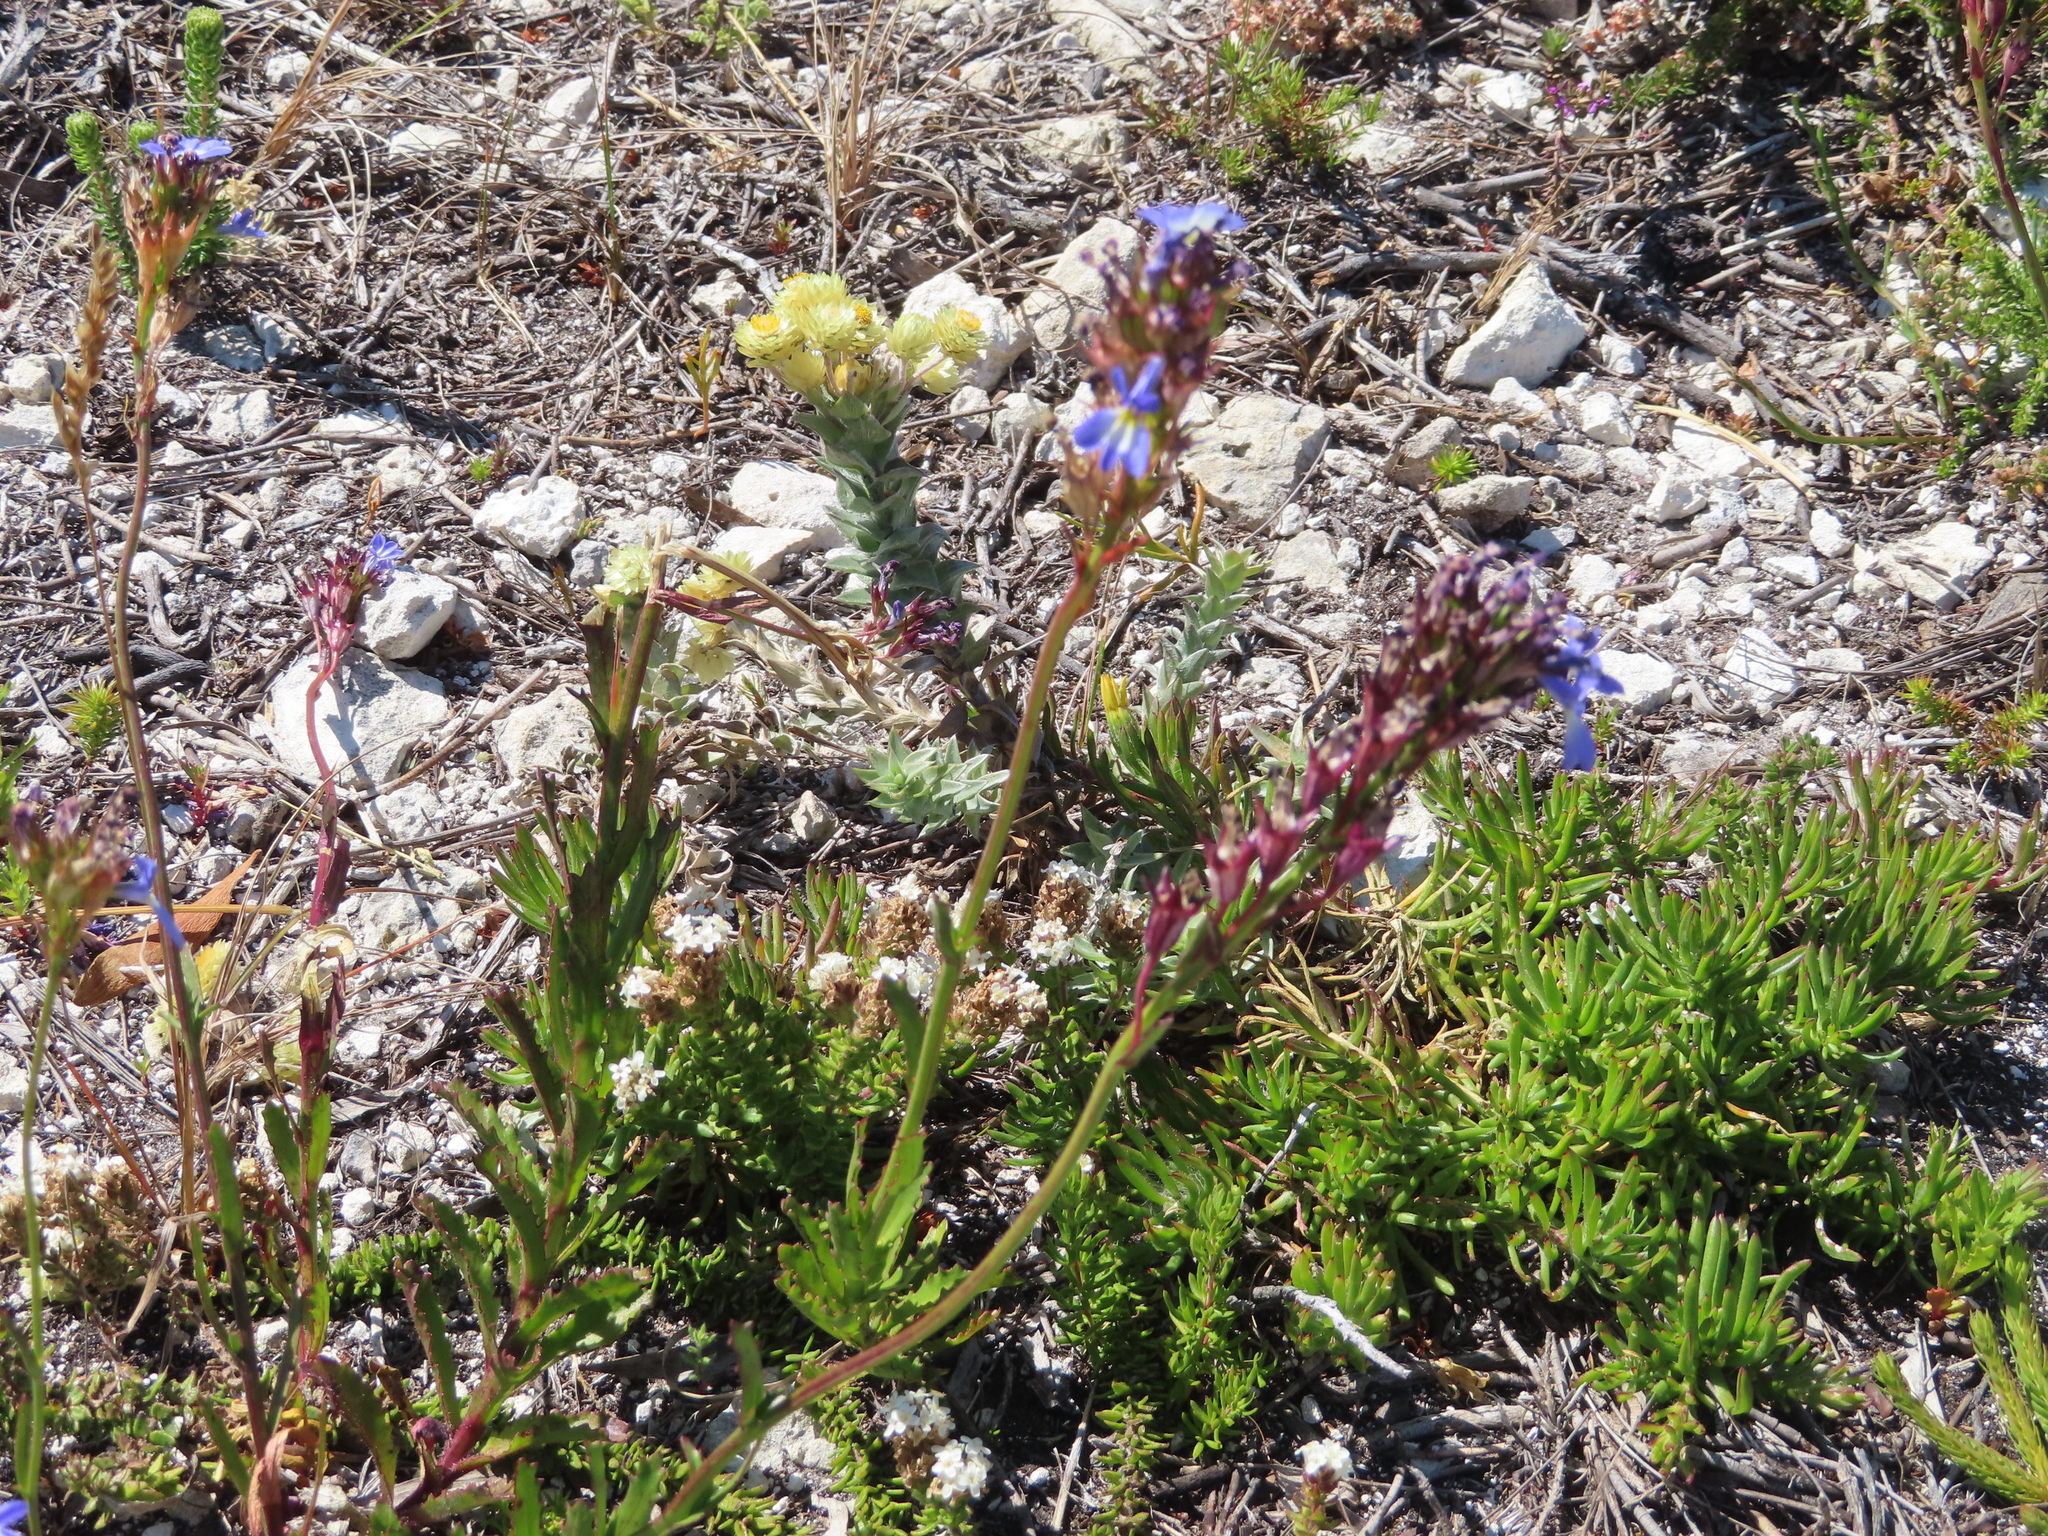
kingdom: Plantae
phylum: Tracheophyta
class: Magnoliopsida
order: Asterales
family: Campanulaceae
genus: Lobelia
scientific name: Lobelia comosa
